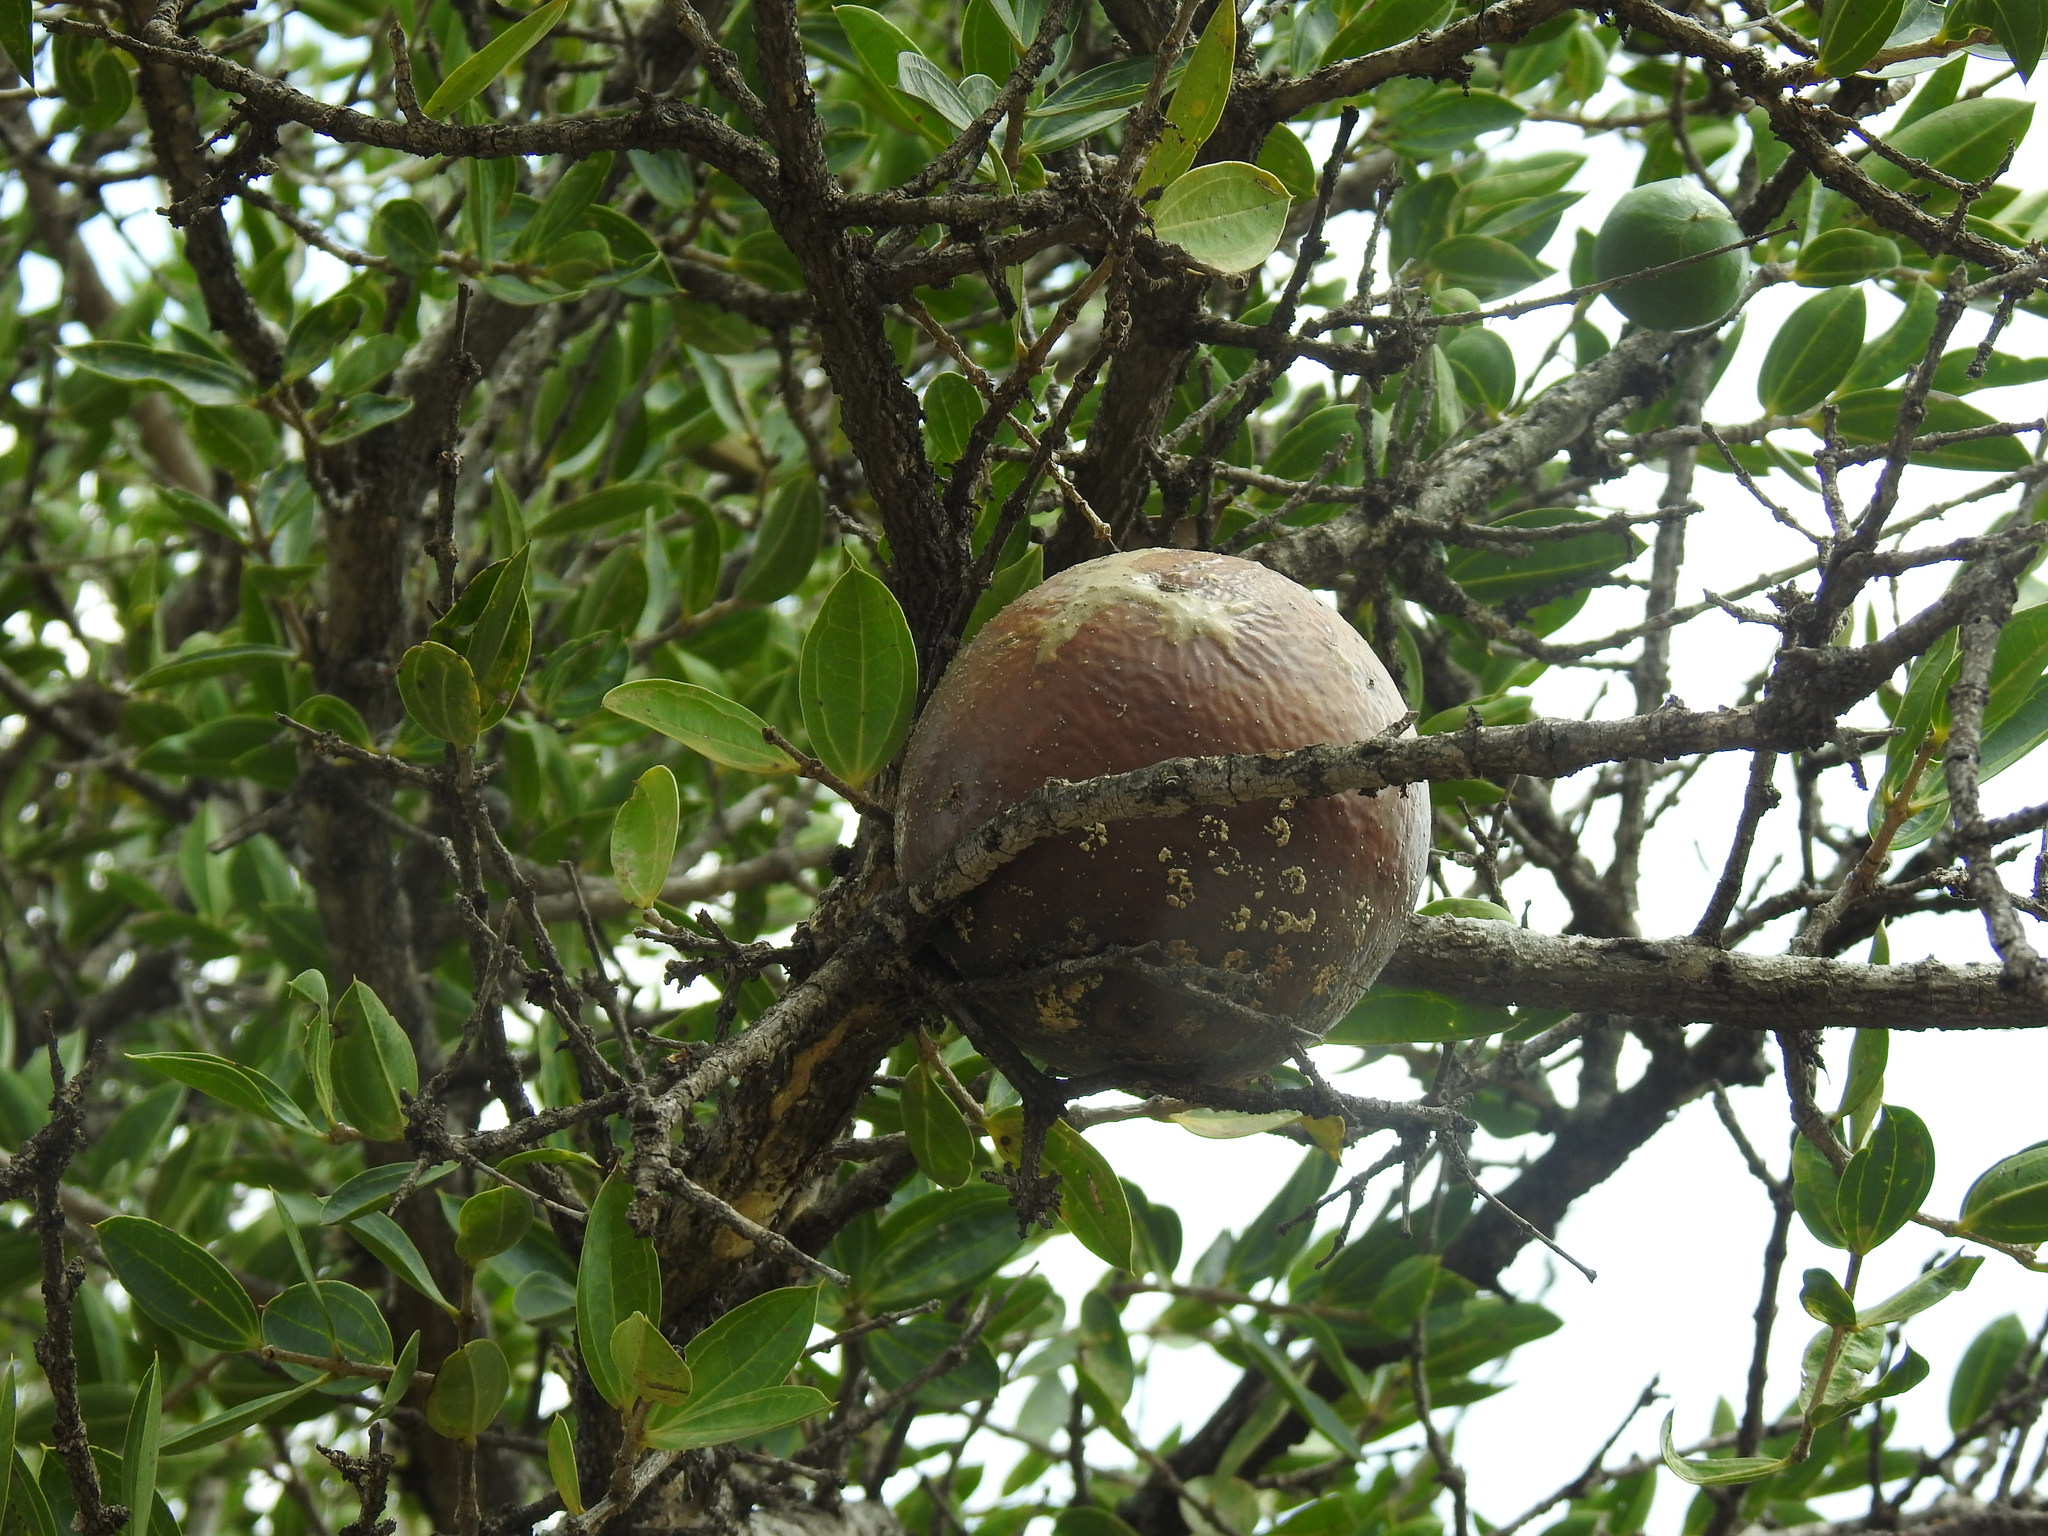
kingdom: Plantae
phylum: Tracheophyta
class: Magnoliopsida
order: Gentianales
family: Loganiaceae
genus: Strychnos
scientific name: Strychnos pungens
